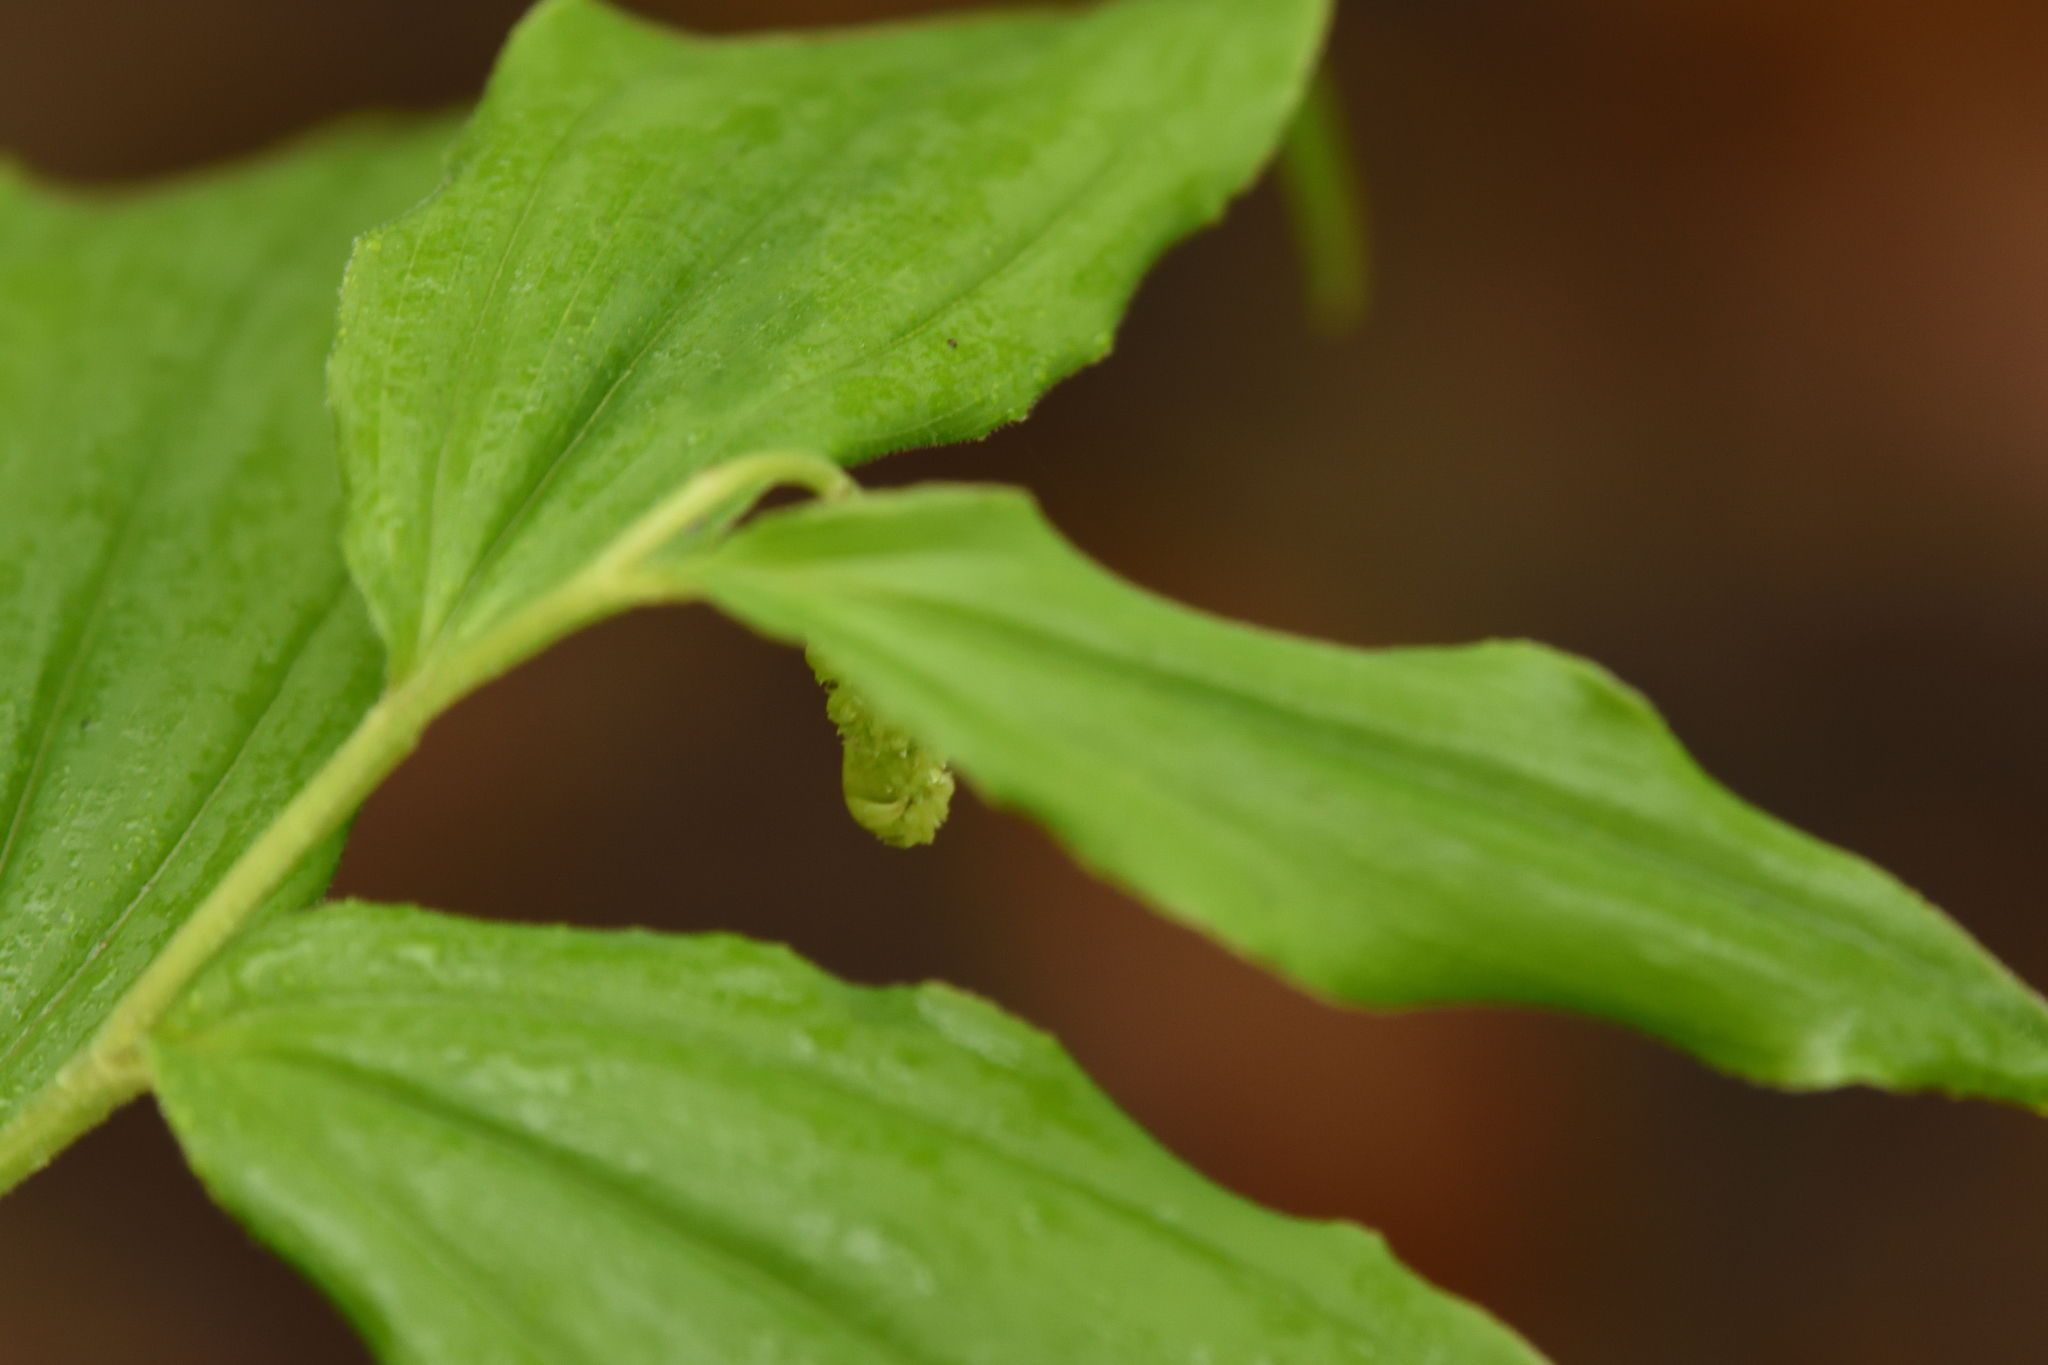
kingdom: Plantae
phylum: Tracheophyta
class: Liliopsida
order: Asparagales
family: Asparagaceae
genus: Maianthemum
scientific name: Maianthemum racemosum
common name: False spikenard
